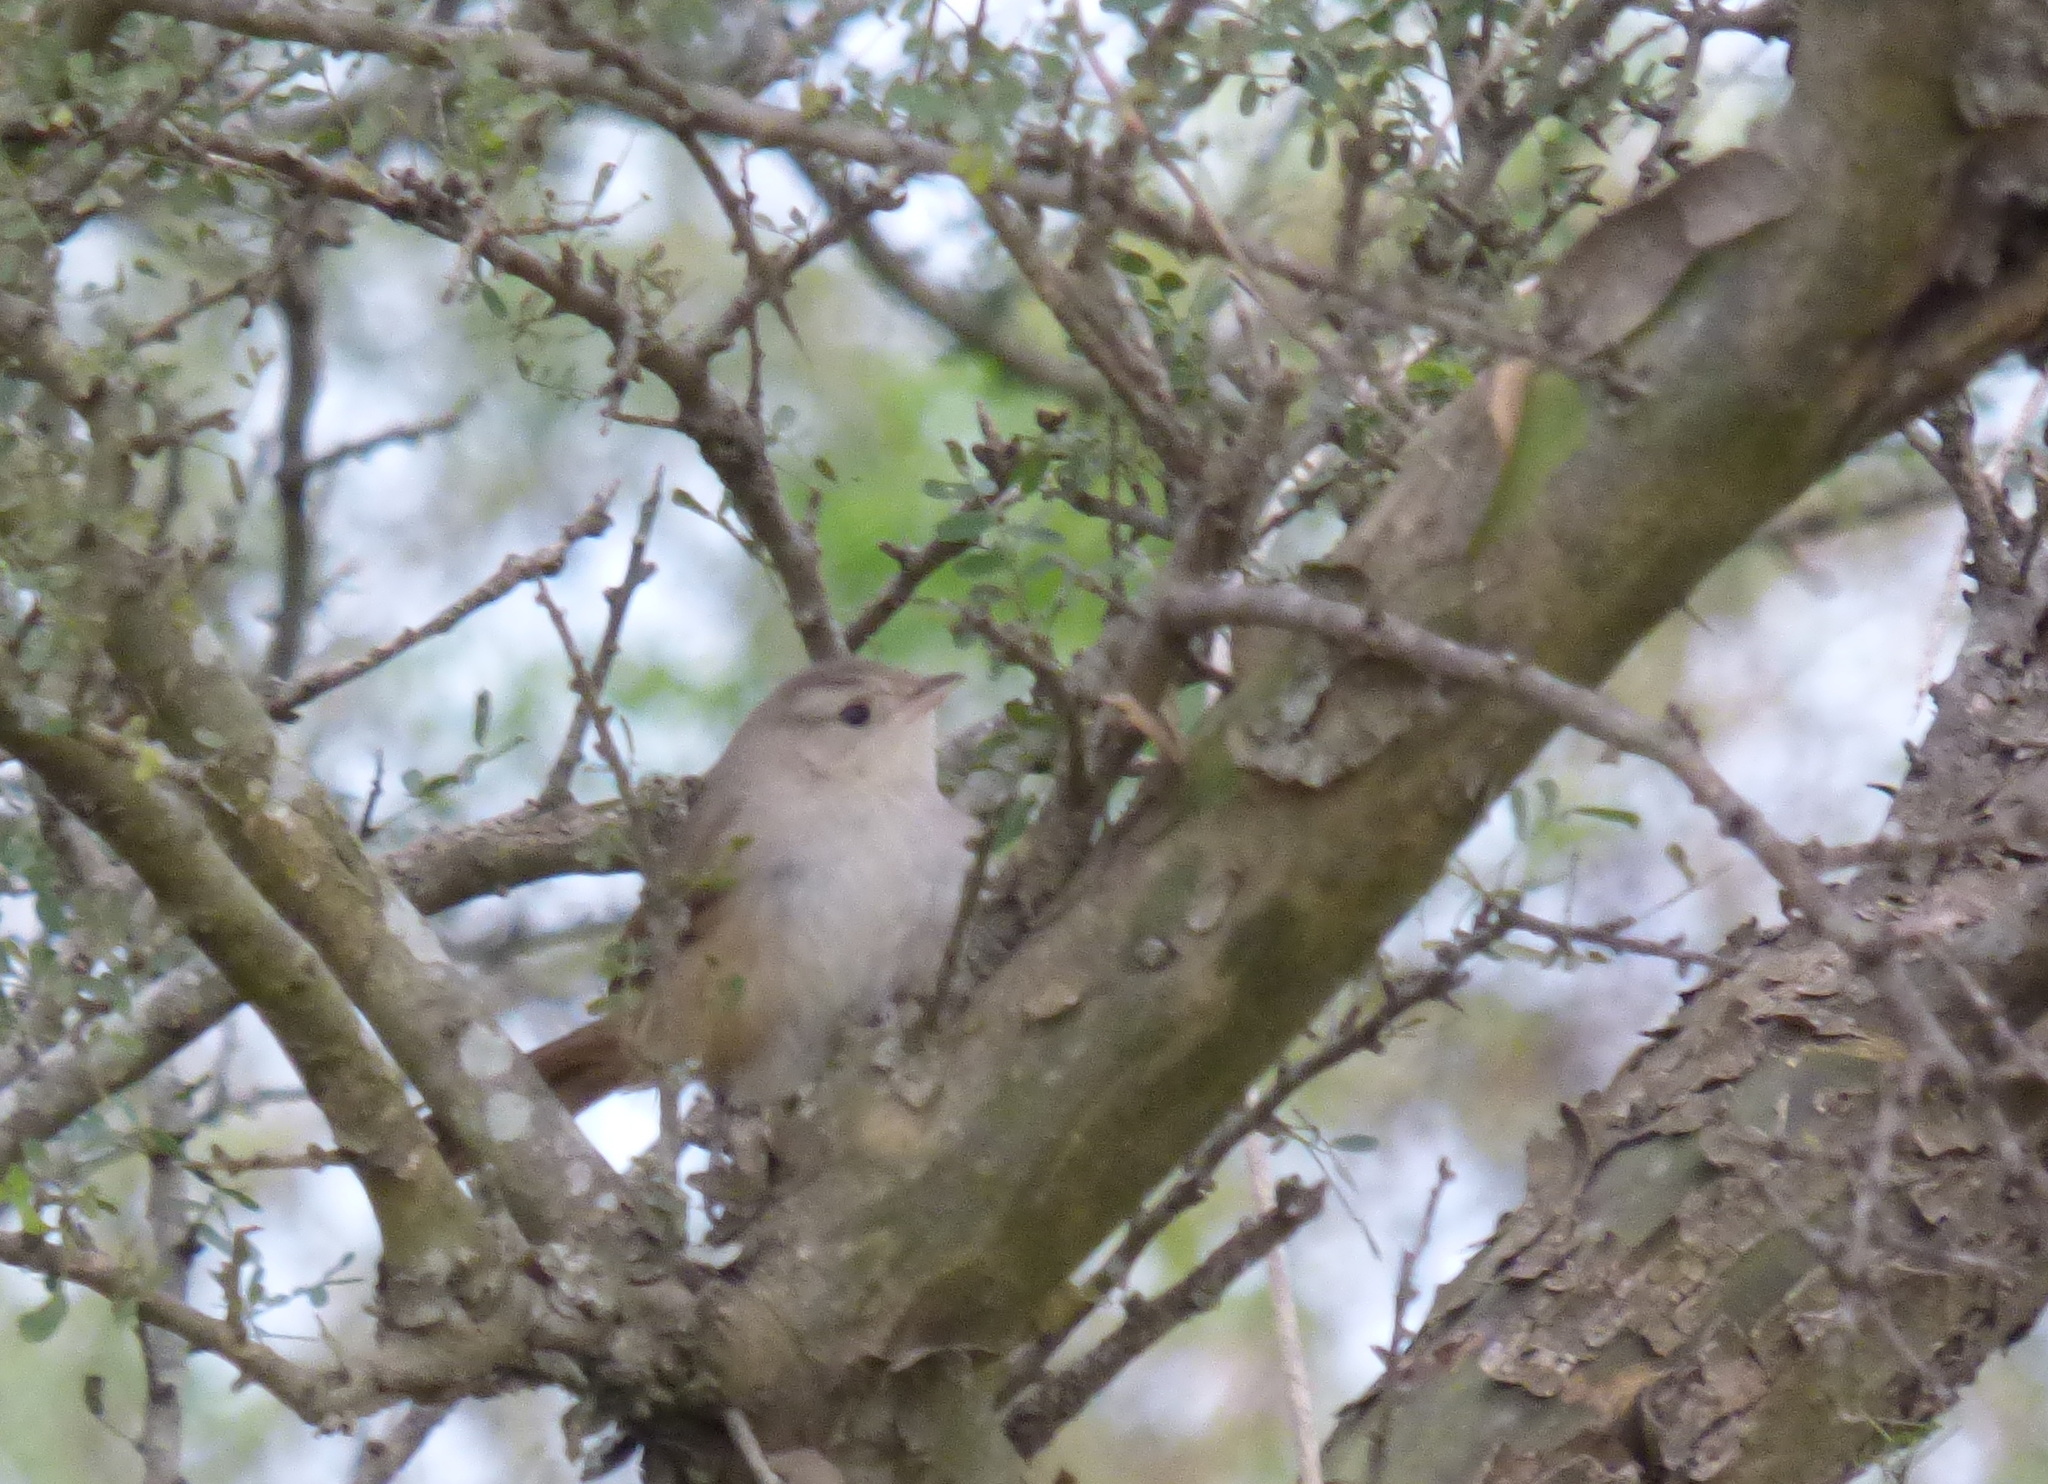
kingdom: Animalia
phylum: Chordata
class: Aves
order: Passeriformes
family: Furnariidae
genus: Phacellodomus
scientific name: Phacellodomus sibilatrix
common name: Little thornbird
